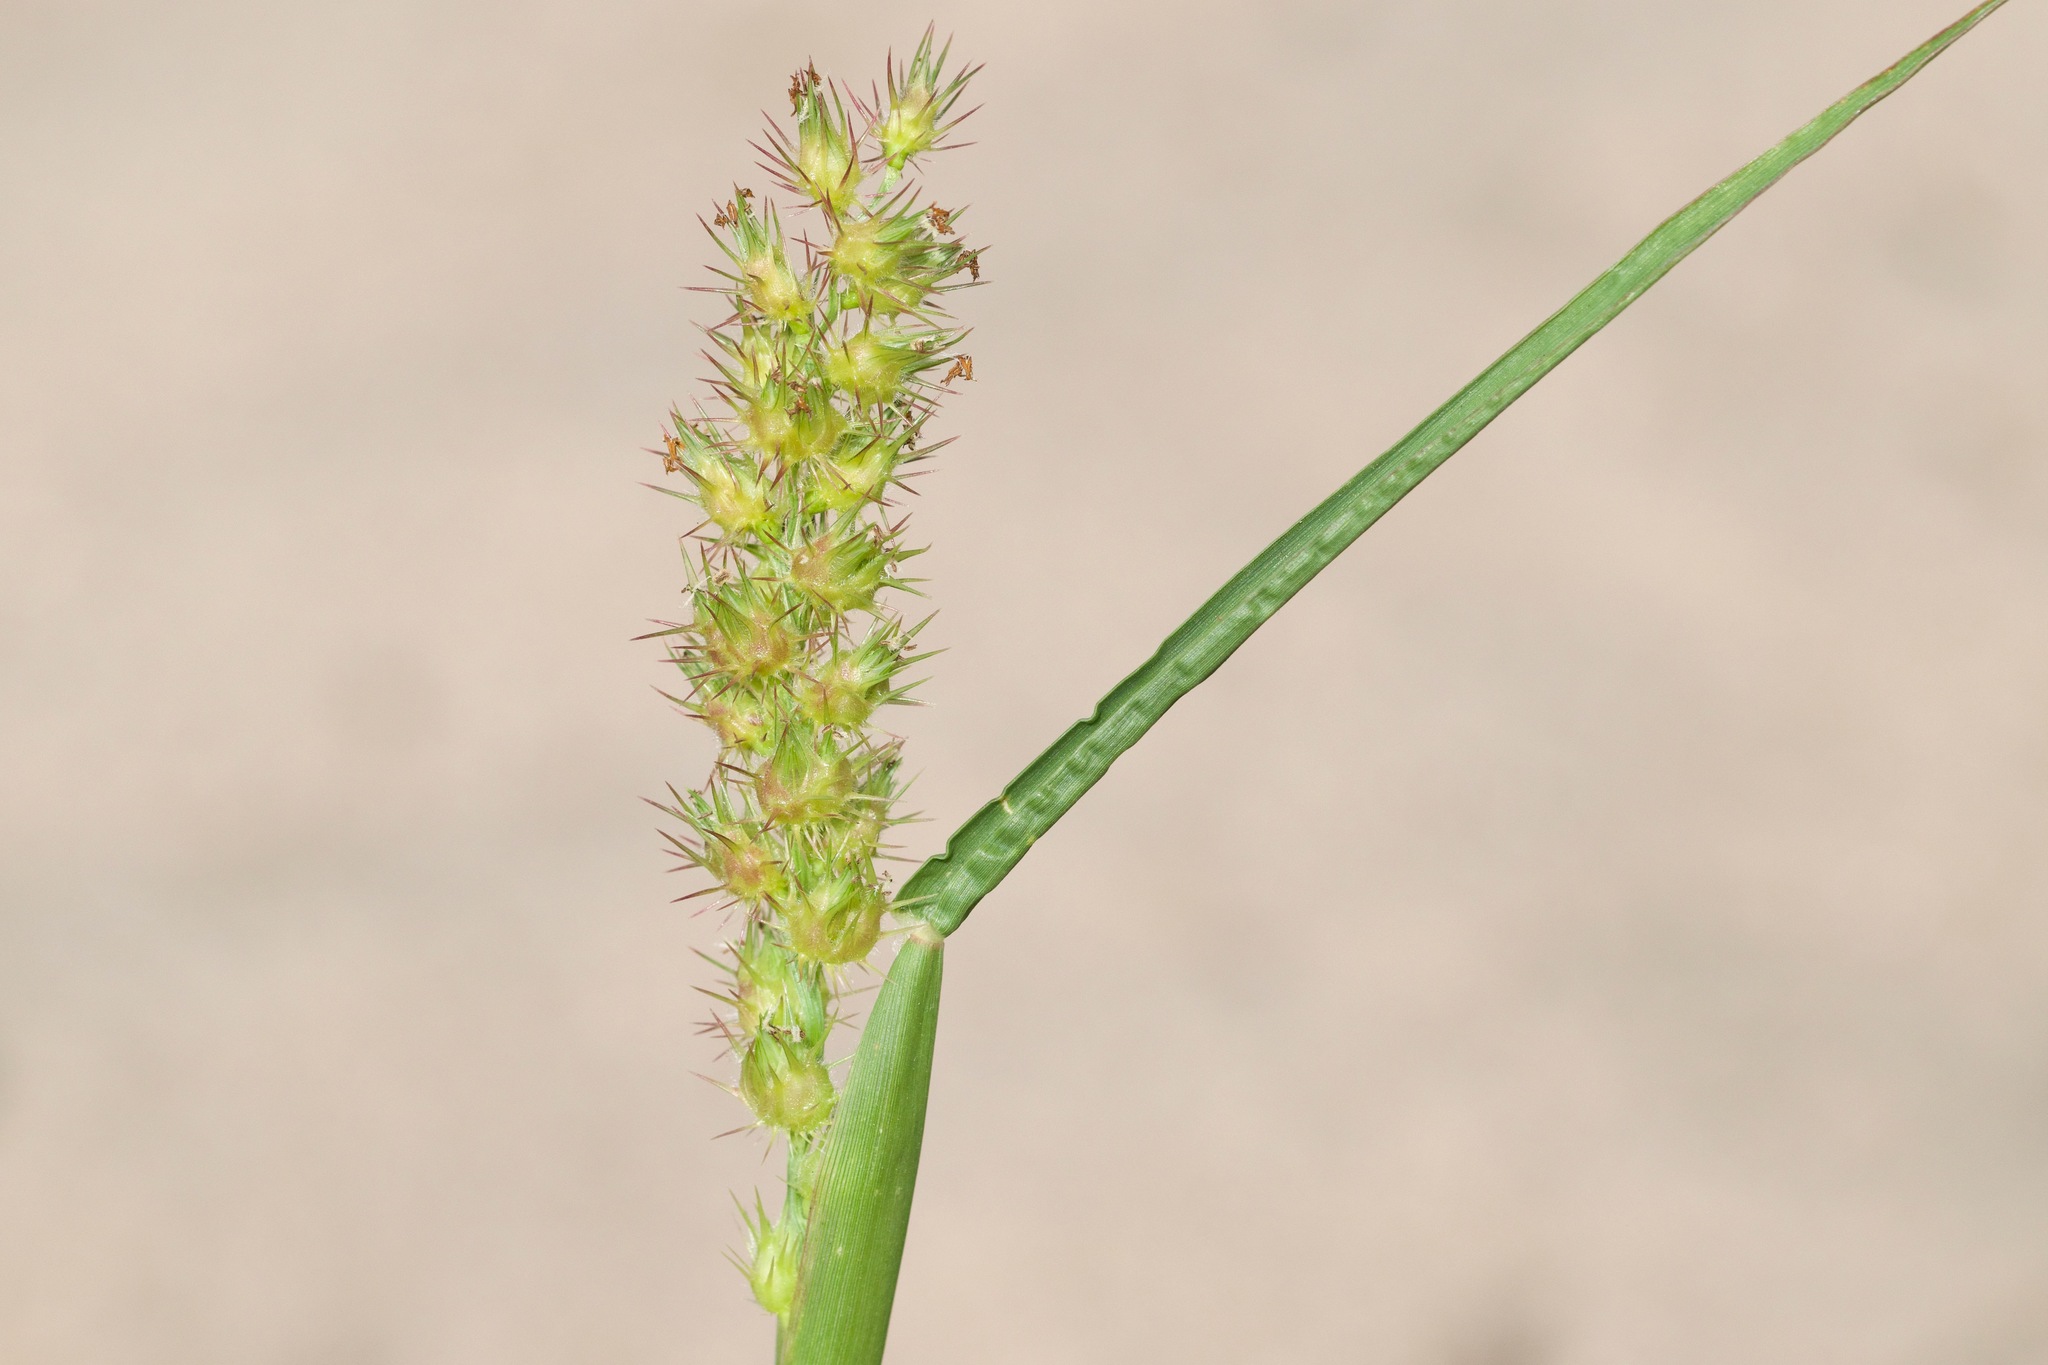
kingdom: Plantae
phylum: Tracheophyta
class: Liliopsida
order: Poales
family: Poaceae
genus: Cenchrus
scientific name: Cenchrus longispinus
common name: Mat sandbur
